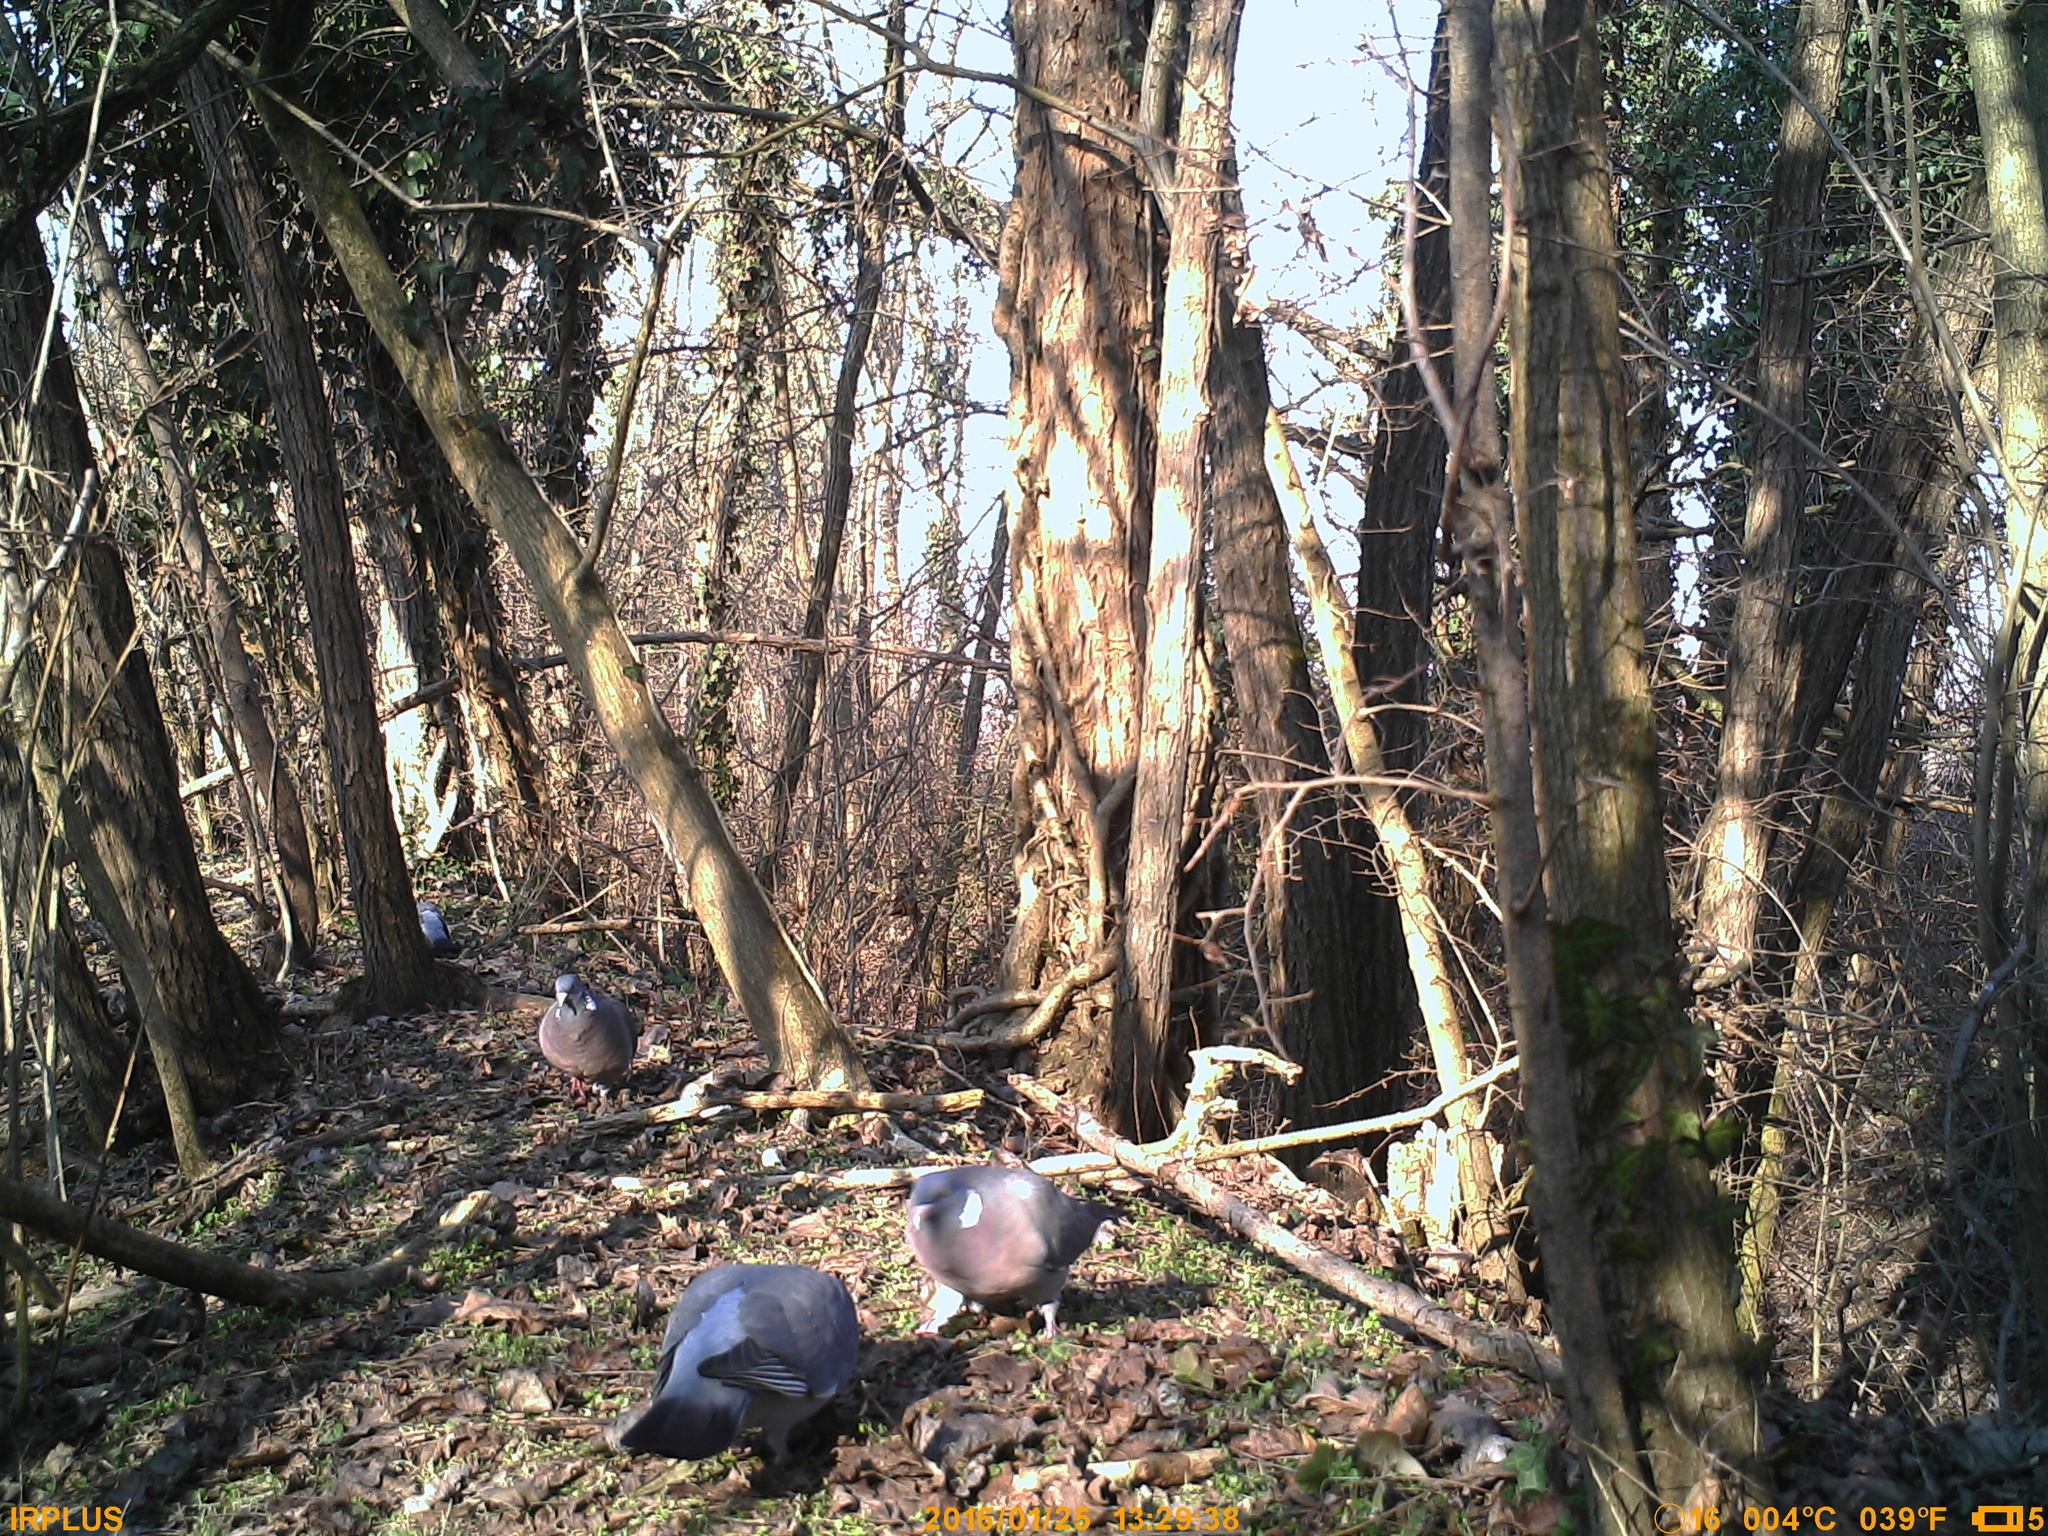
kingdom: Animalia
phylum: Chordata
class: Aves
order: Columbiformes
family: Columbidae
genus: Columba
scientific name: Columba palumbus
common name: Common wood pigeon
